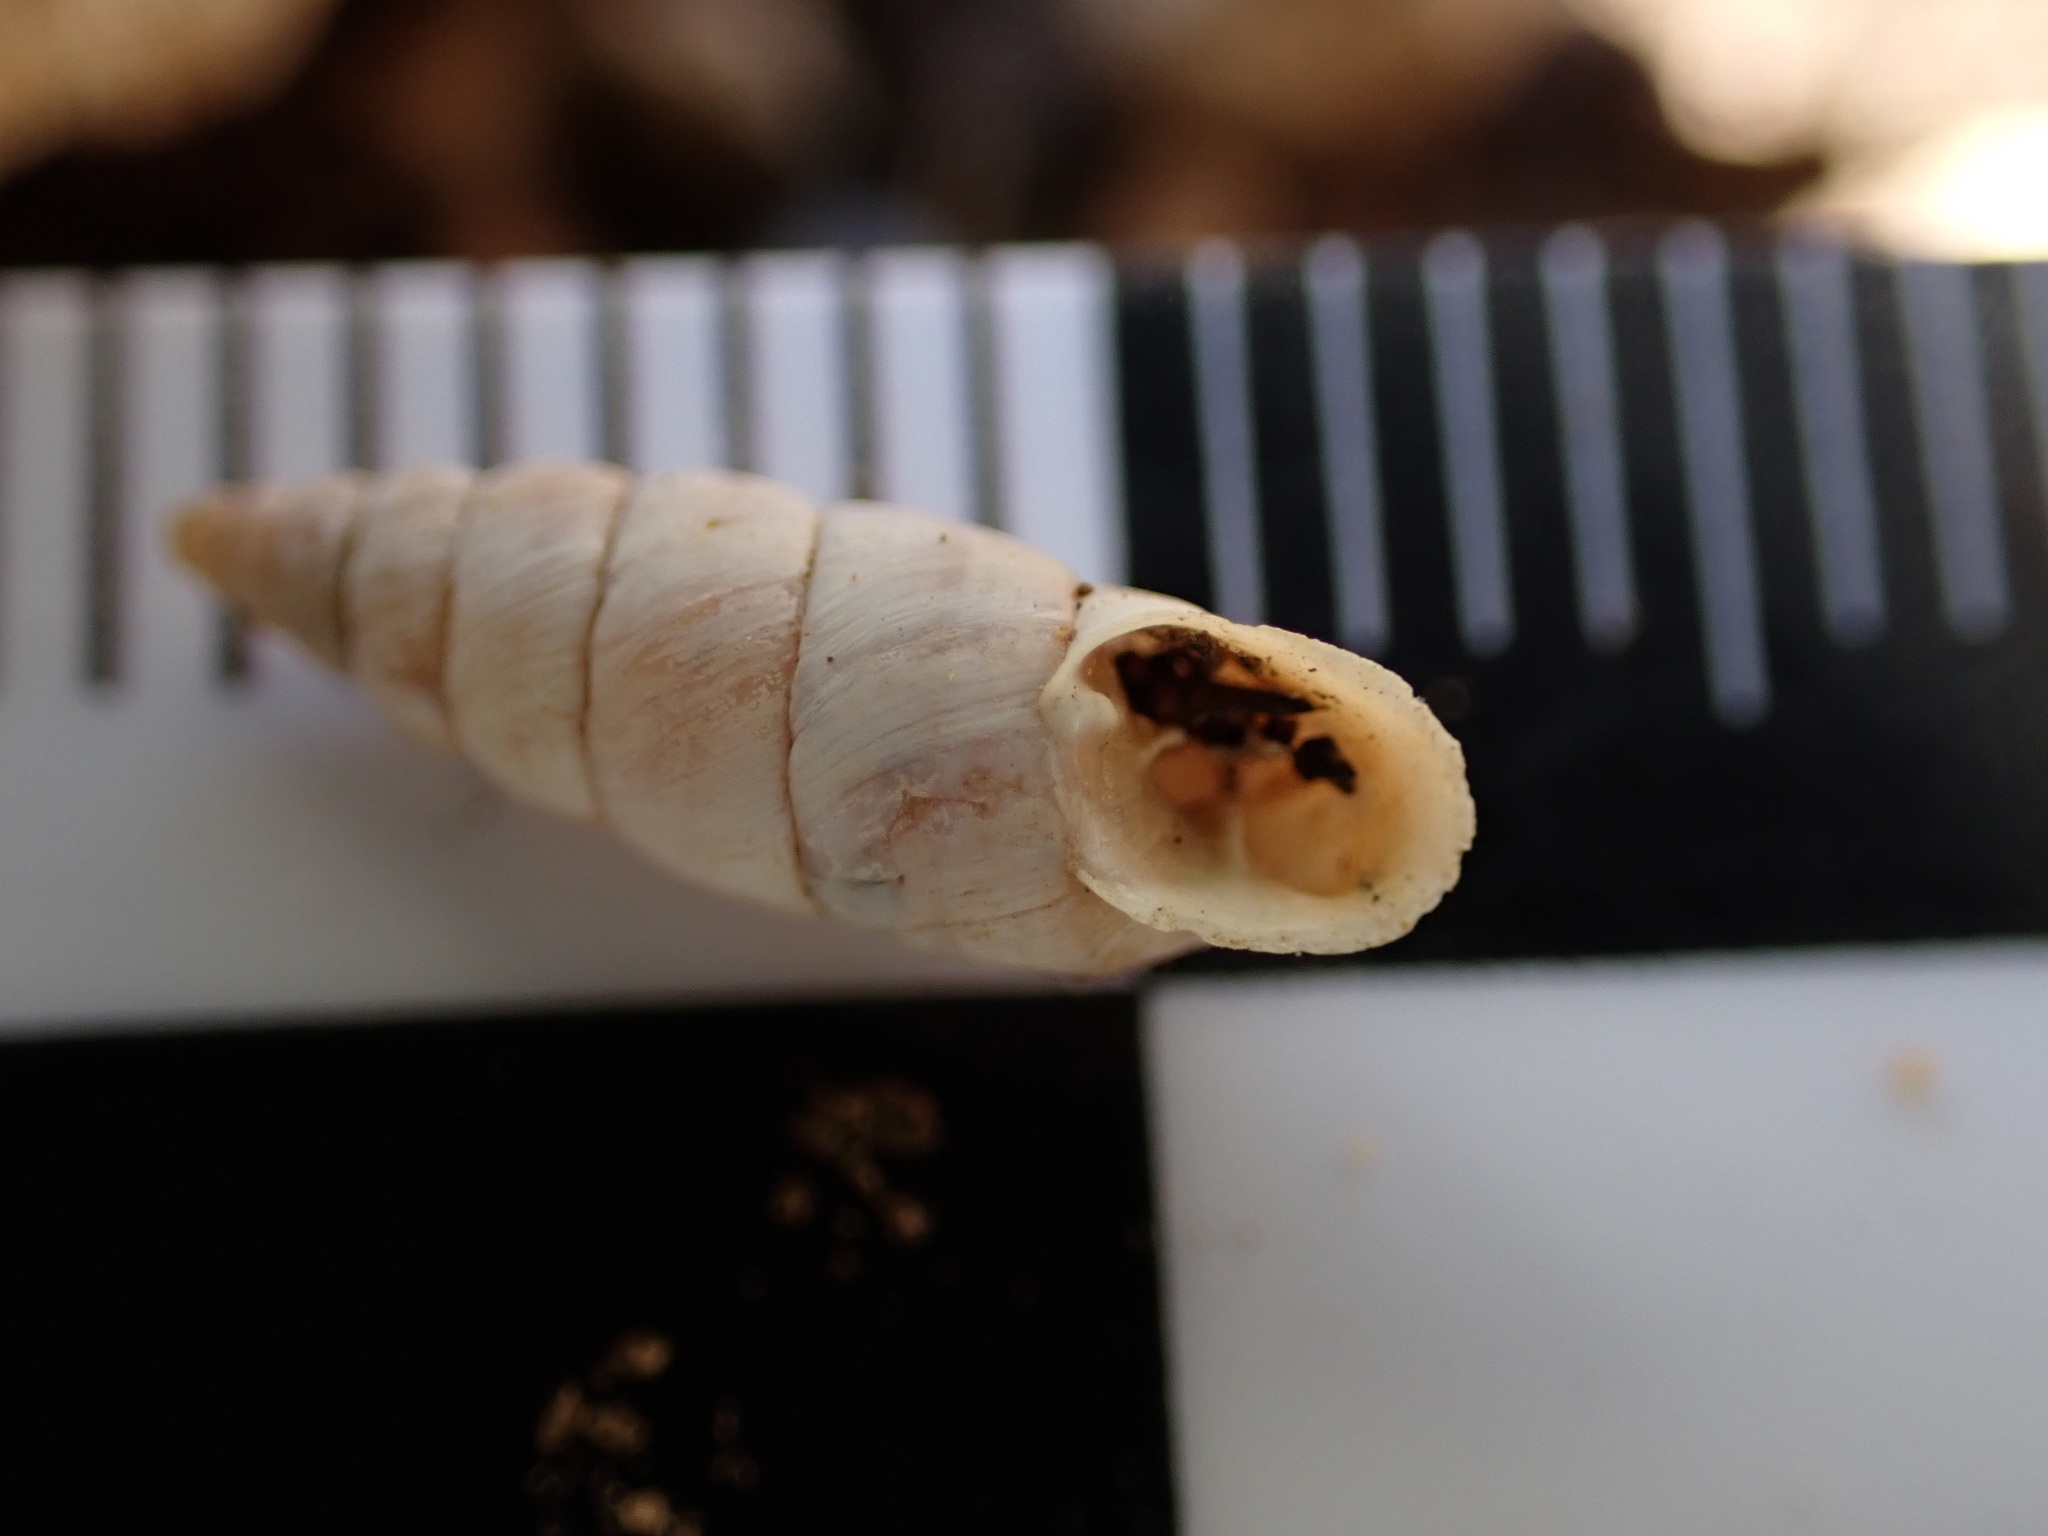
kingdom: Animalia
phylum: Mollusca
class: Gastropoda
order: Stylommatophora
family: Chondrinidae
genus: Solatopupa
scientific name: Solatopupa similis
